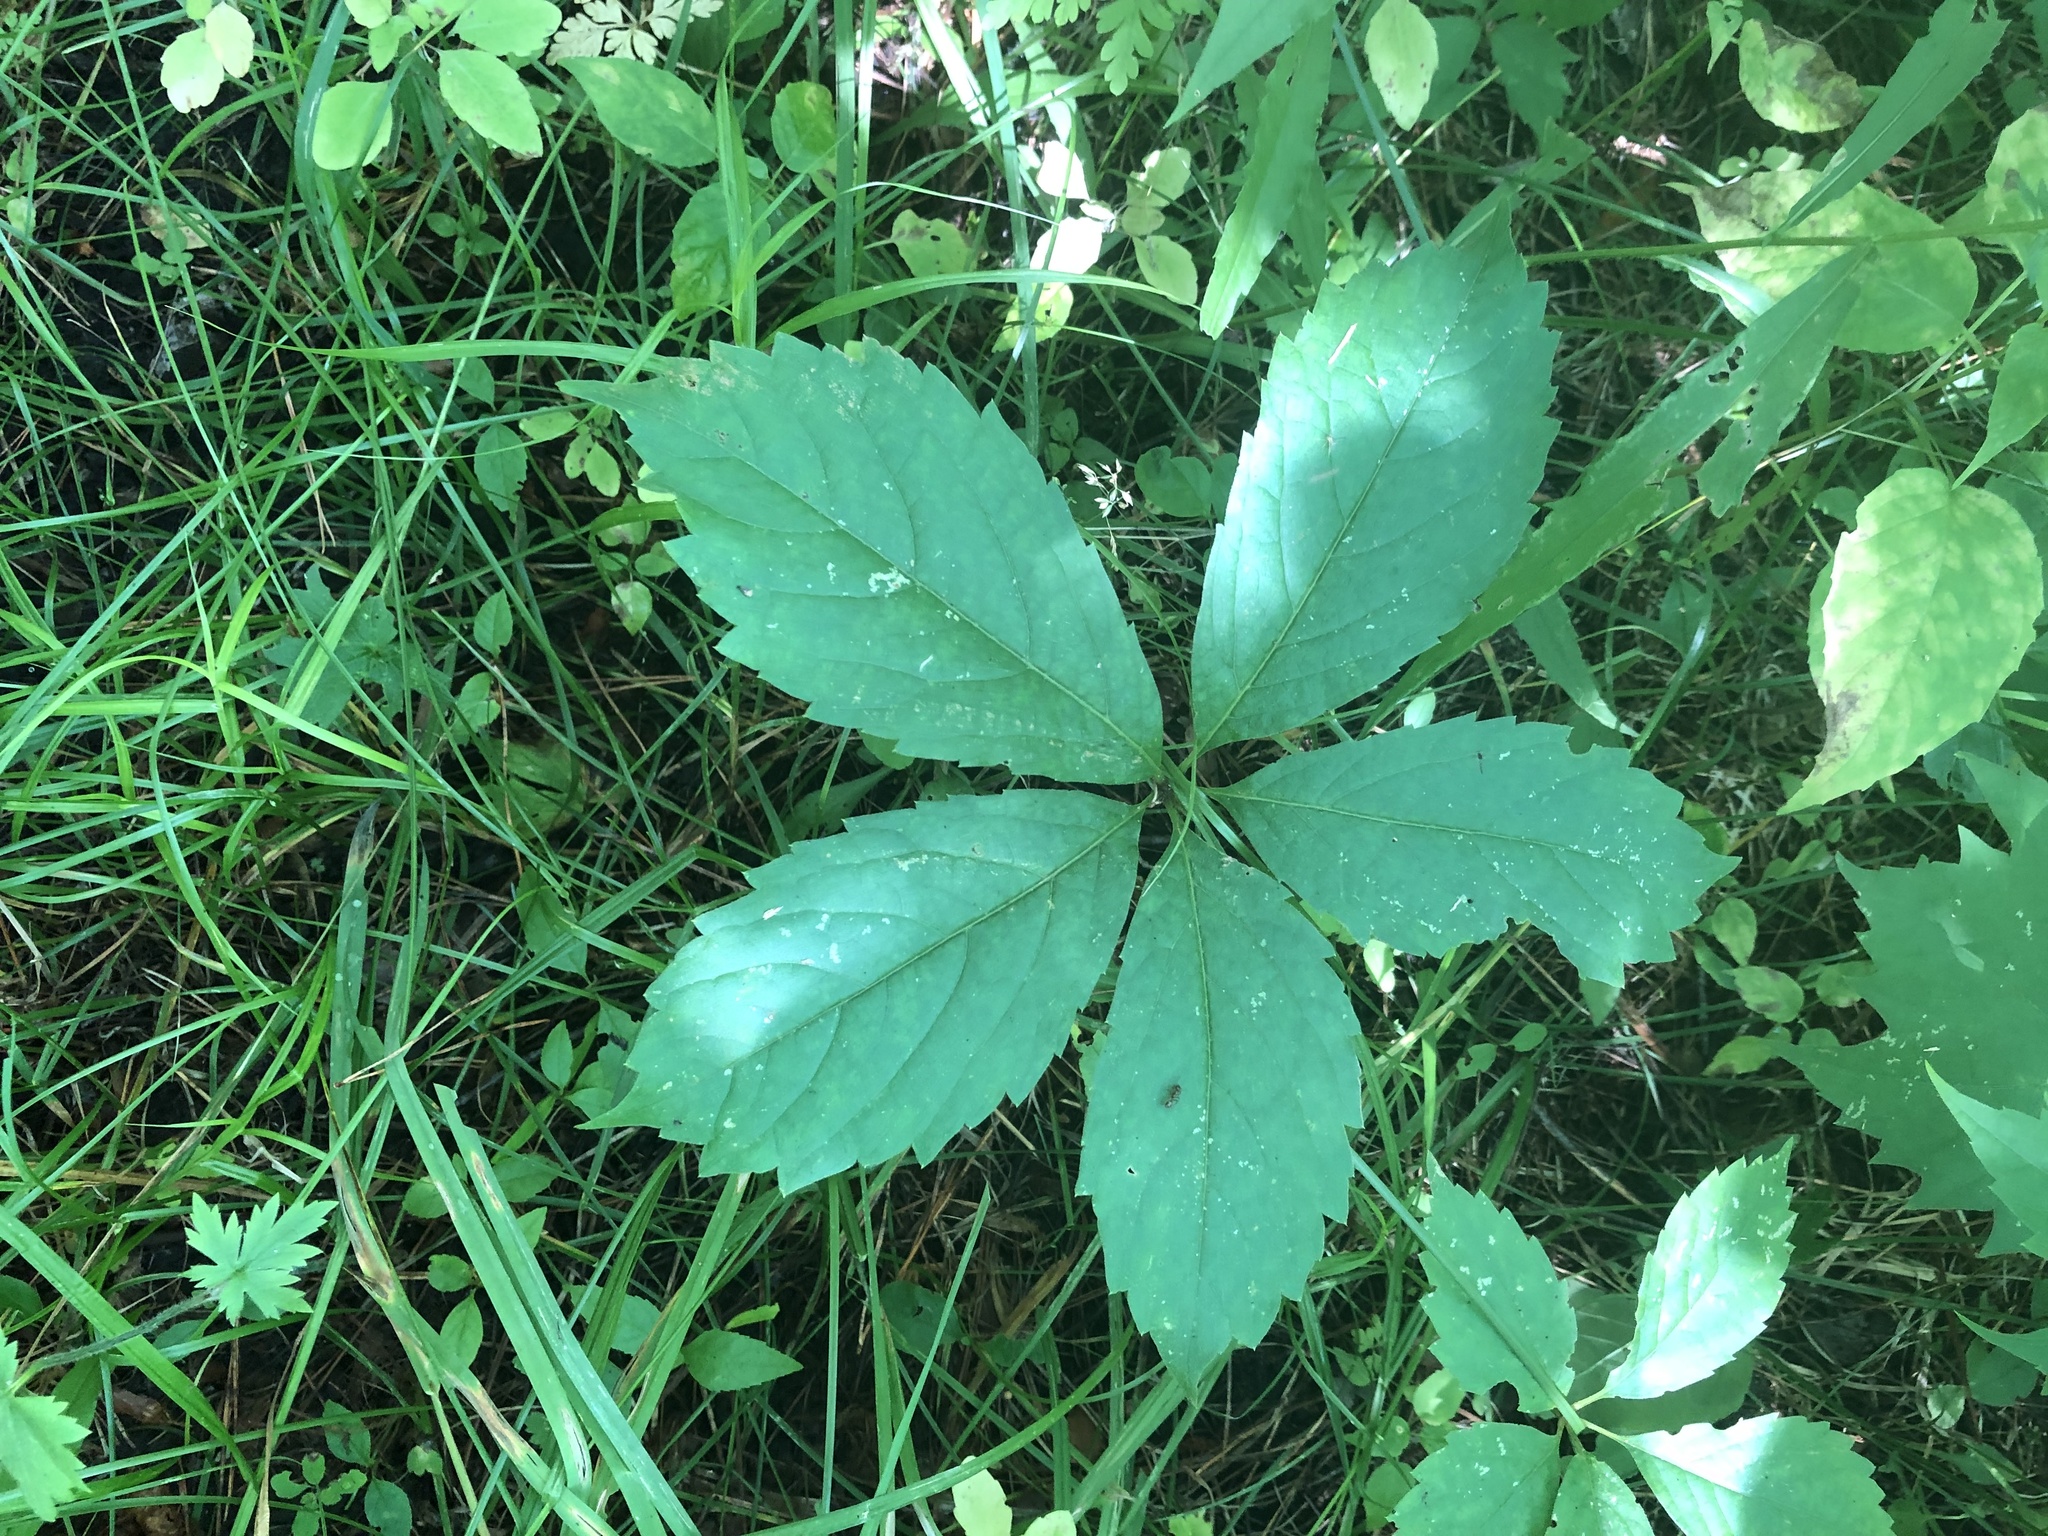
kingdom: Plantae
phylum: Tracheophyta
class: Magnoliopsida
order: Vitales
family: Vitaceae
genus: Parthenocissus
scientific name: Parthenocissus inserta
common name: False virginia-creeper
